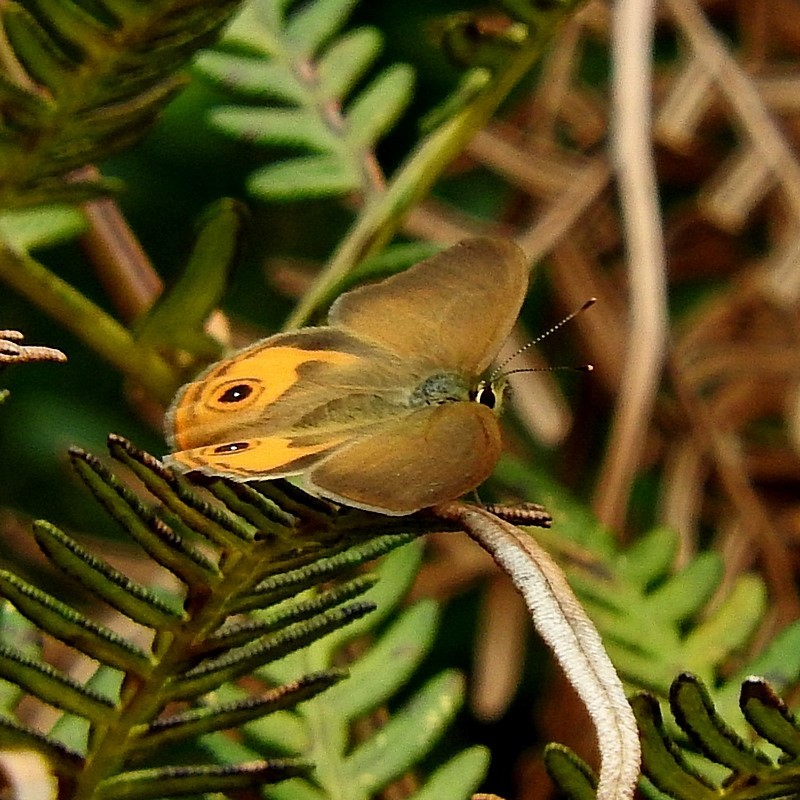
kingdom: Animalia
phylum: Arthropoda
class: Insecta
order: Lepidoptera
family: Nymphalidae
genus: Hypocysta
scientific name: Hypocysta metirius
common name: Brown ringlet
